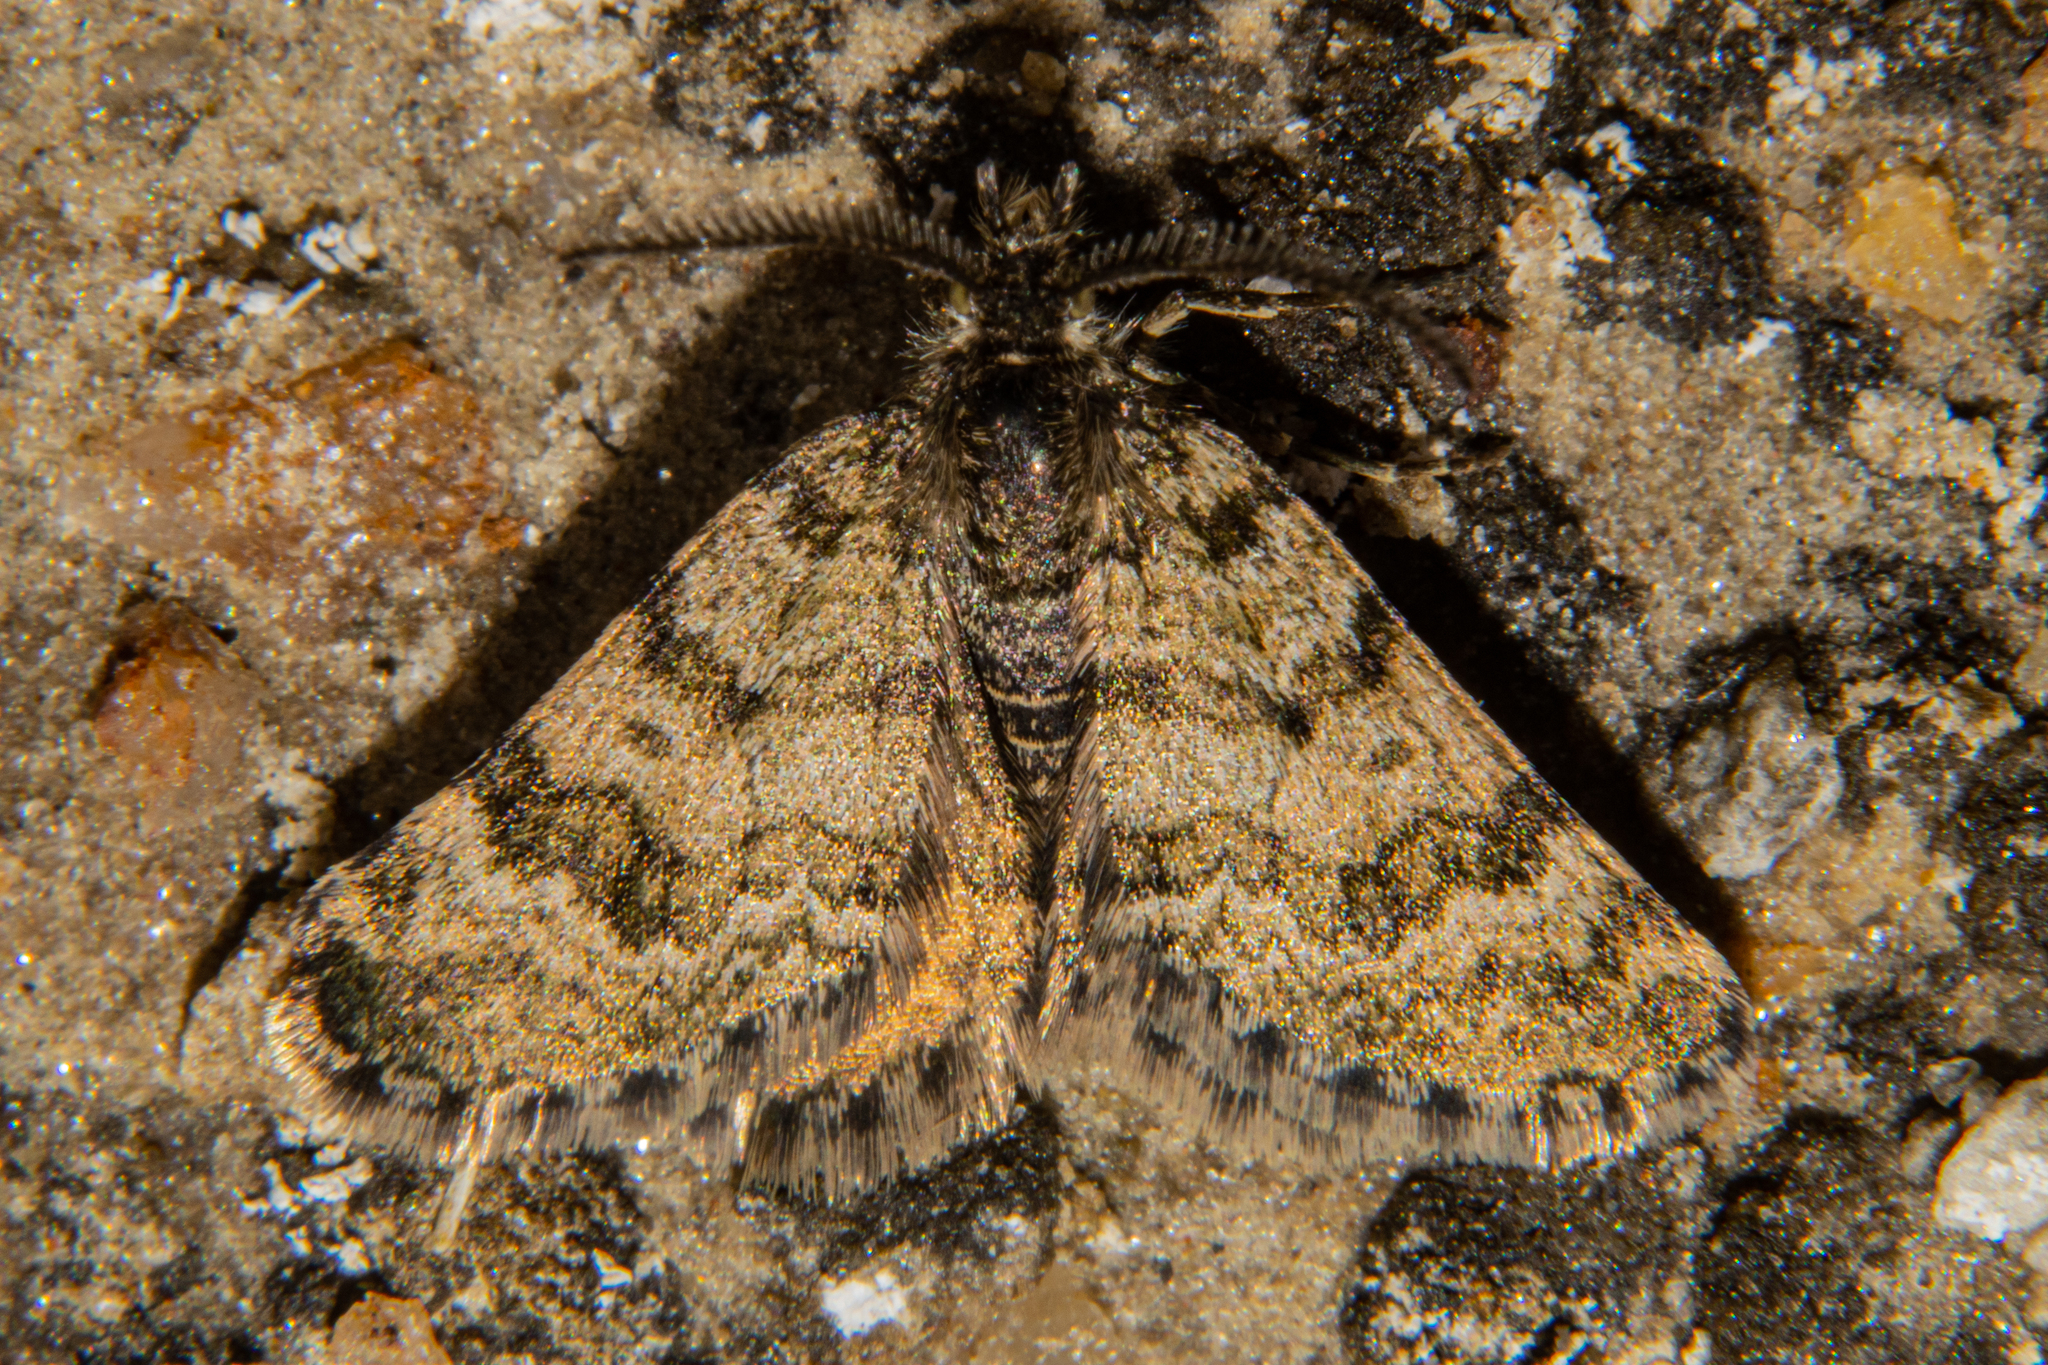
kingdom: Animalia
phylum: Arthropoda
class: Insecta
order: Lepidoptera
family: Geometridae
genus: Paranotoreas
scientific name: Paranotoreas fulva
